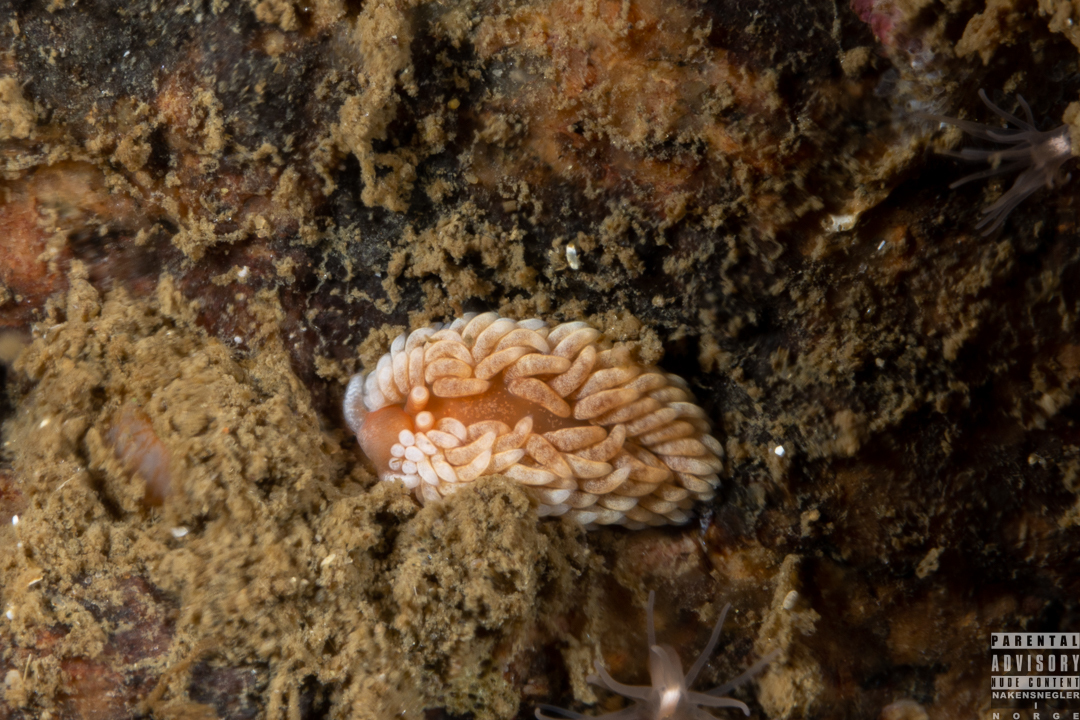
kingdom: Animalia
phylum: Mollusca
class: Gastropoda
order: Nudibranchia
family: Aeolidiidae
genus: Aeolidiella
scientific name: Aeolidiella glauca
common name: Orange-brown aeolid
